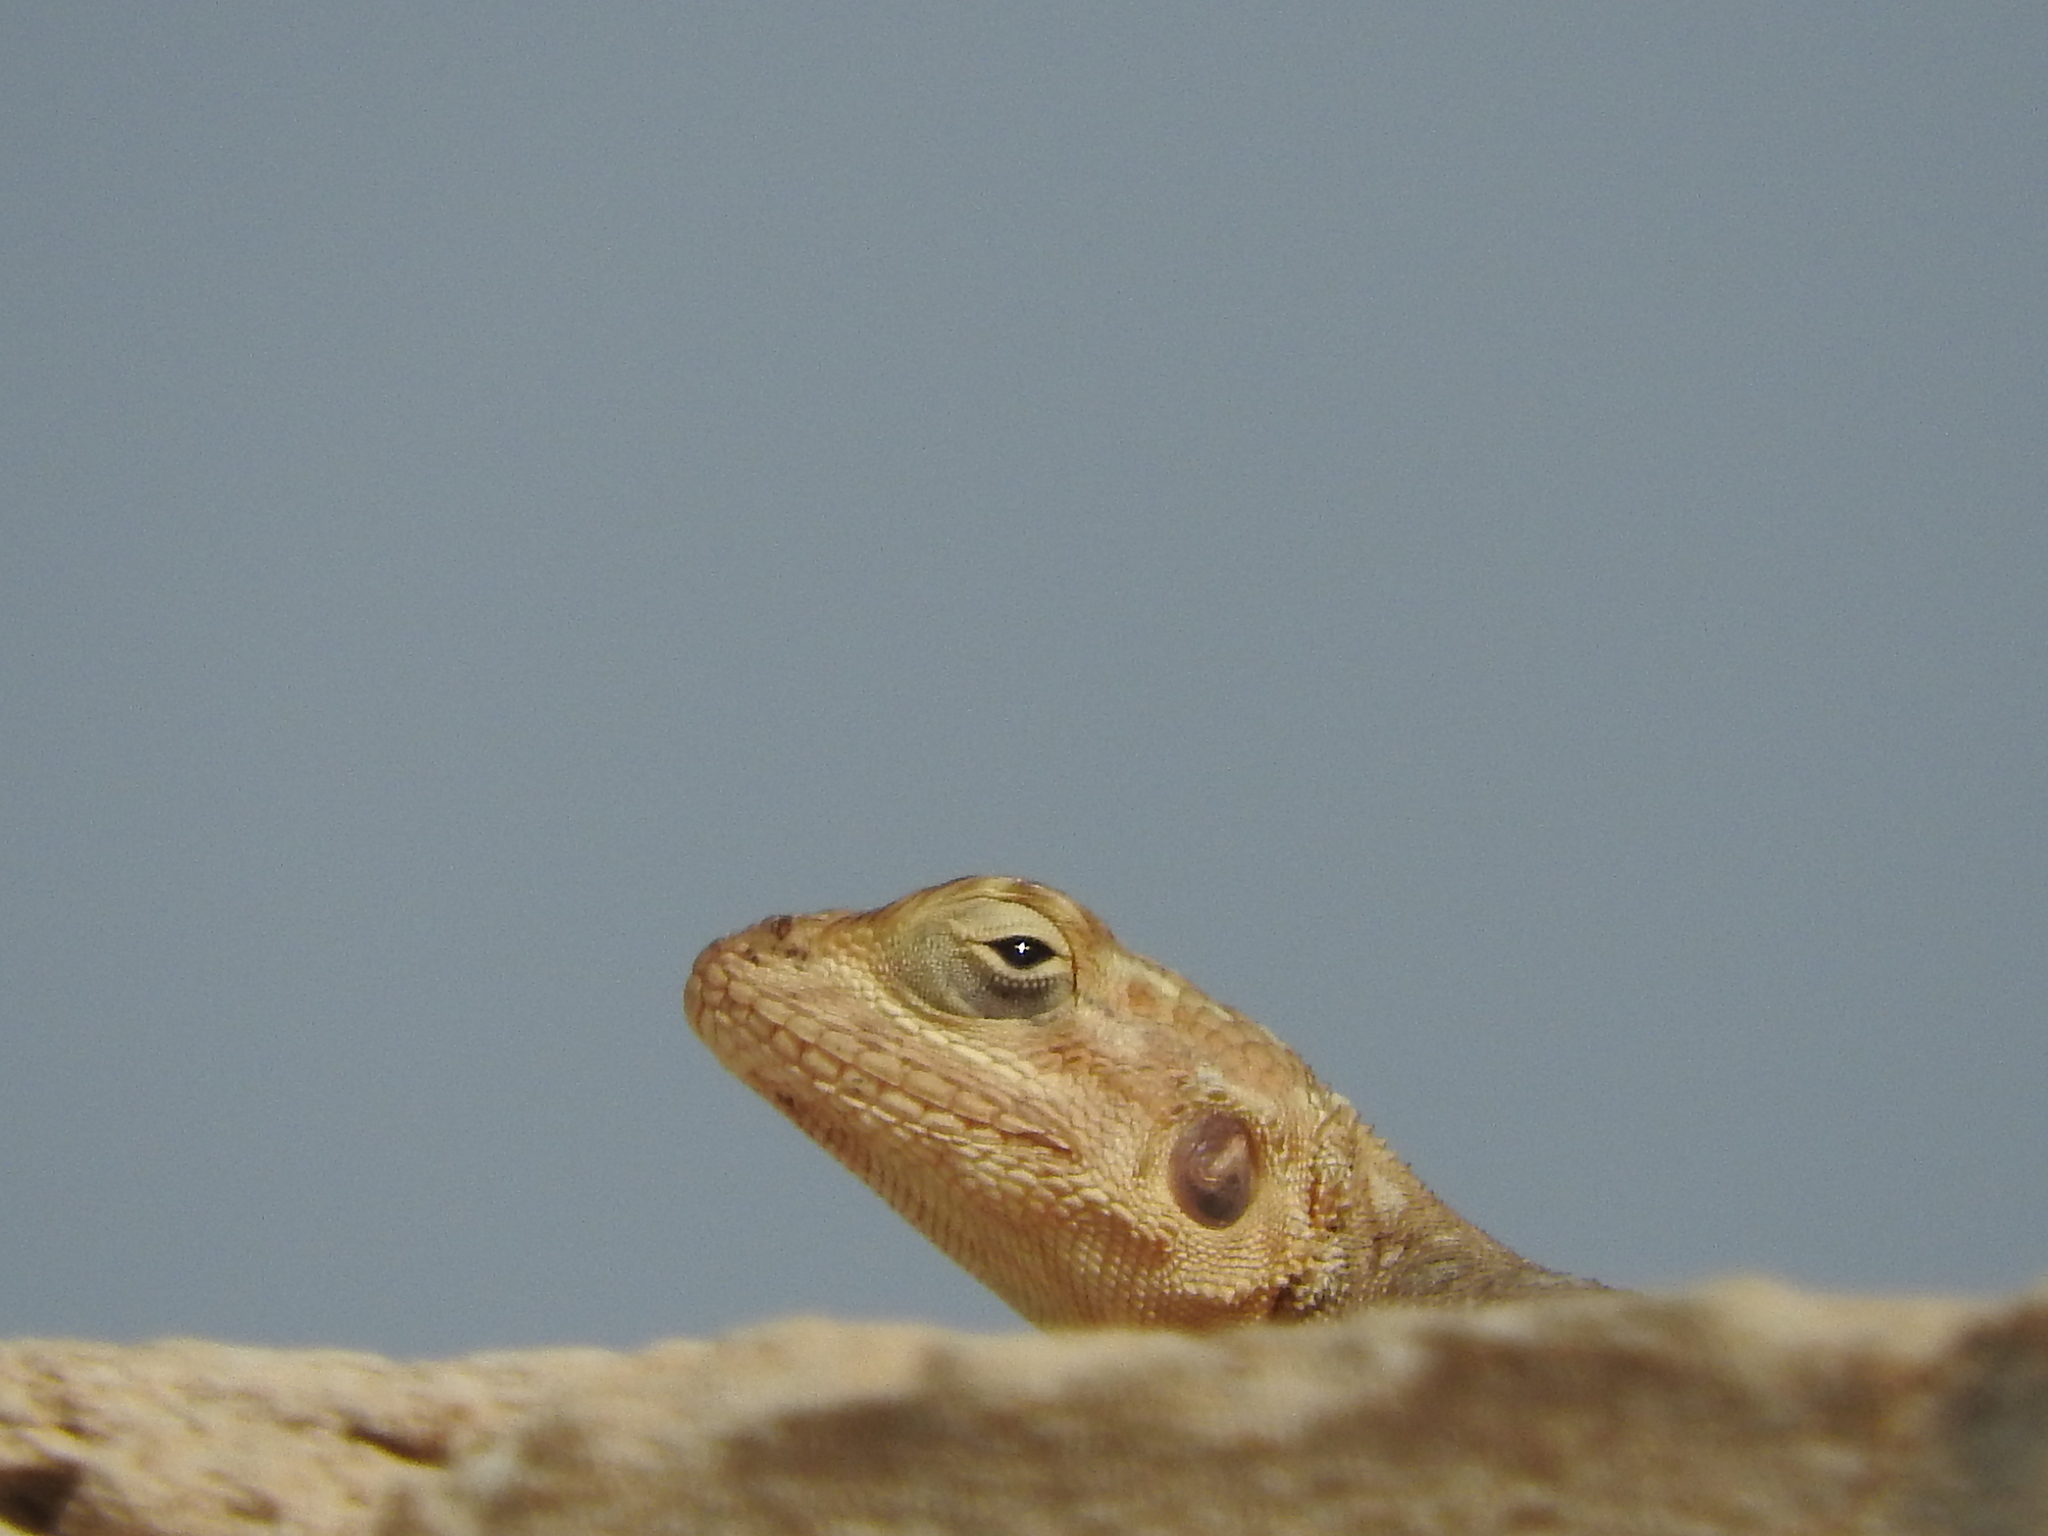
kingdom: Animalia
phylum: Chordata
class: Squamata
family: Agamidae
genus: Agama
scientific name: Agama agama
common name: Common agama
